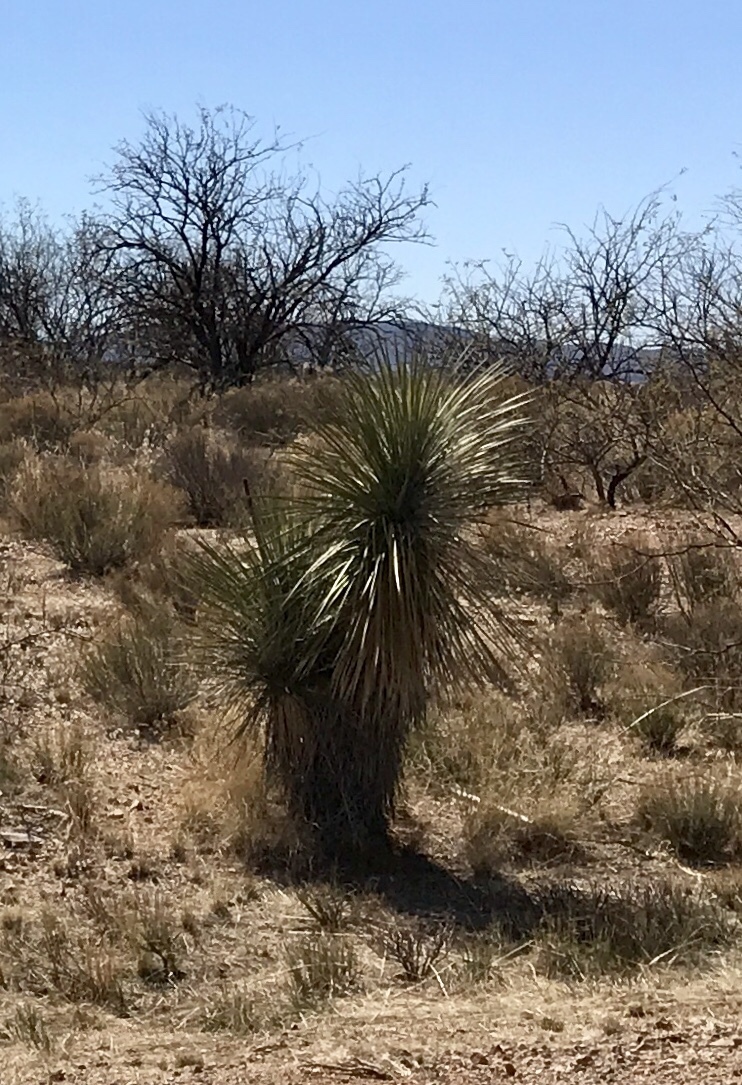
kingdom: Plantae
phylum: Tracheophyta
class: Liliopsida
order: Asparagales
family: Asparagaceae
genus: Yucca
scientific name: Yucca elata
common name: Palmella
